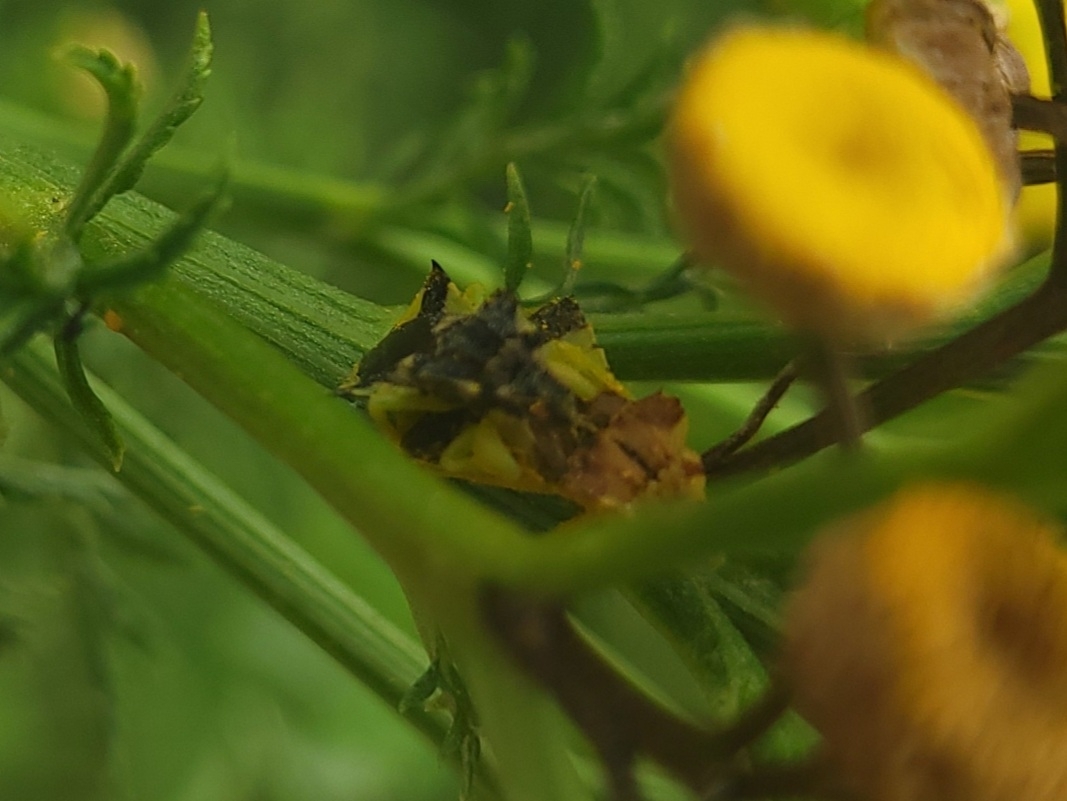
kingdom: Animalia
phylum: Arthropoda
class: Insecta
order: Hemiptera
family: Reduviidae
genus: Phymata
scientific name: Phymata americana
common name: Jagged ambush bug
